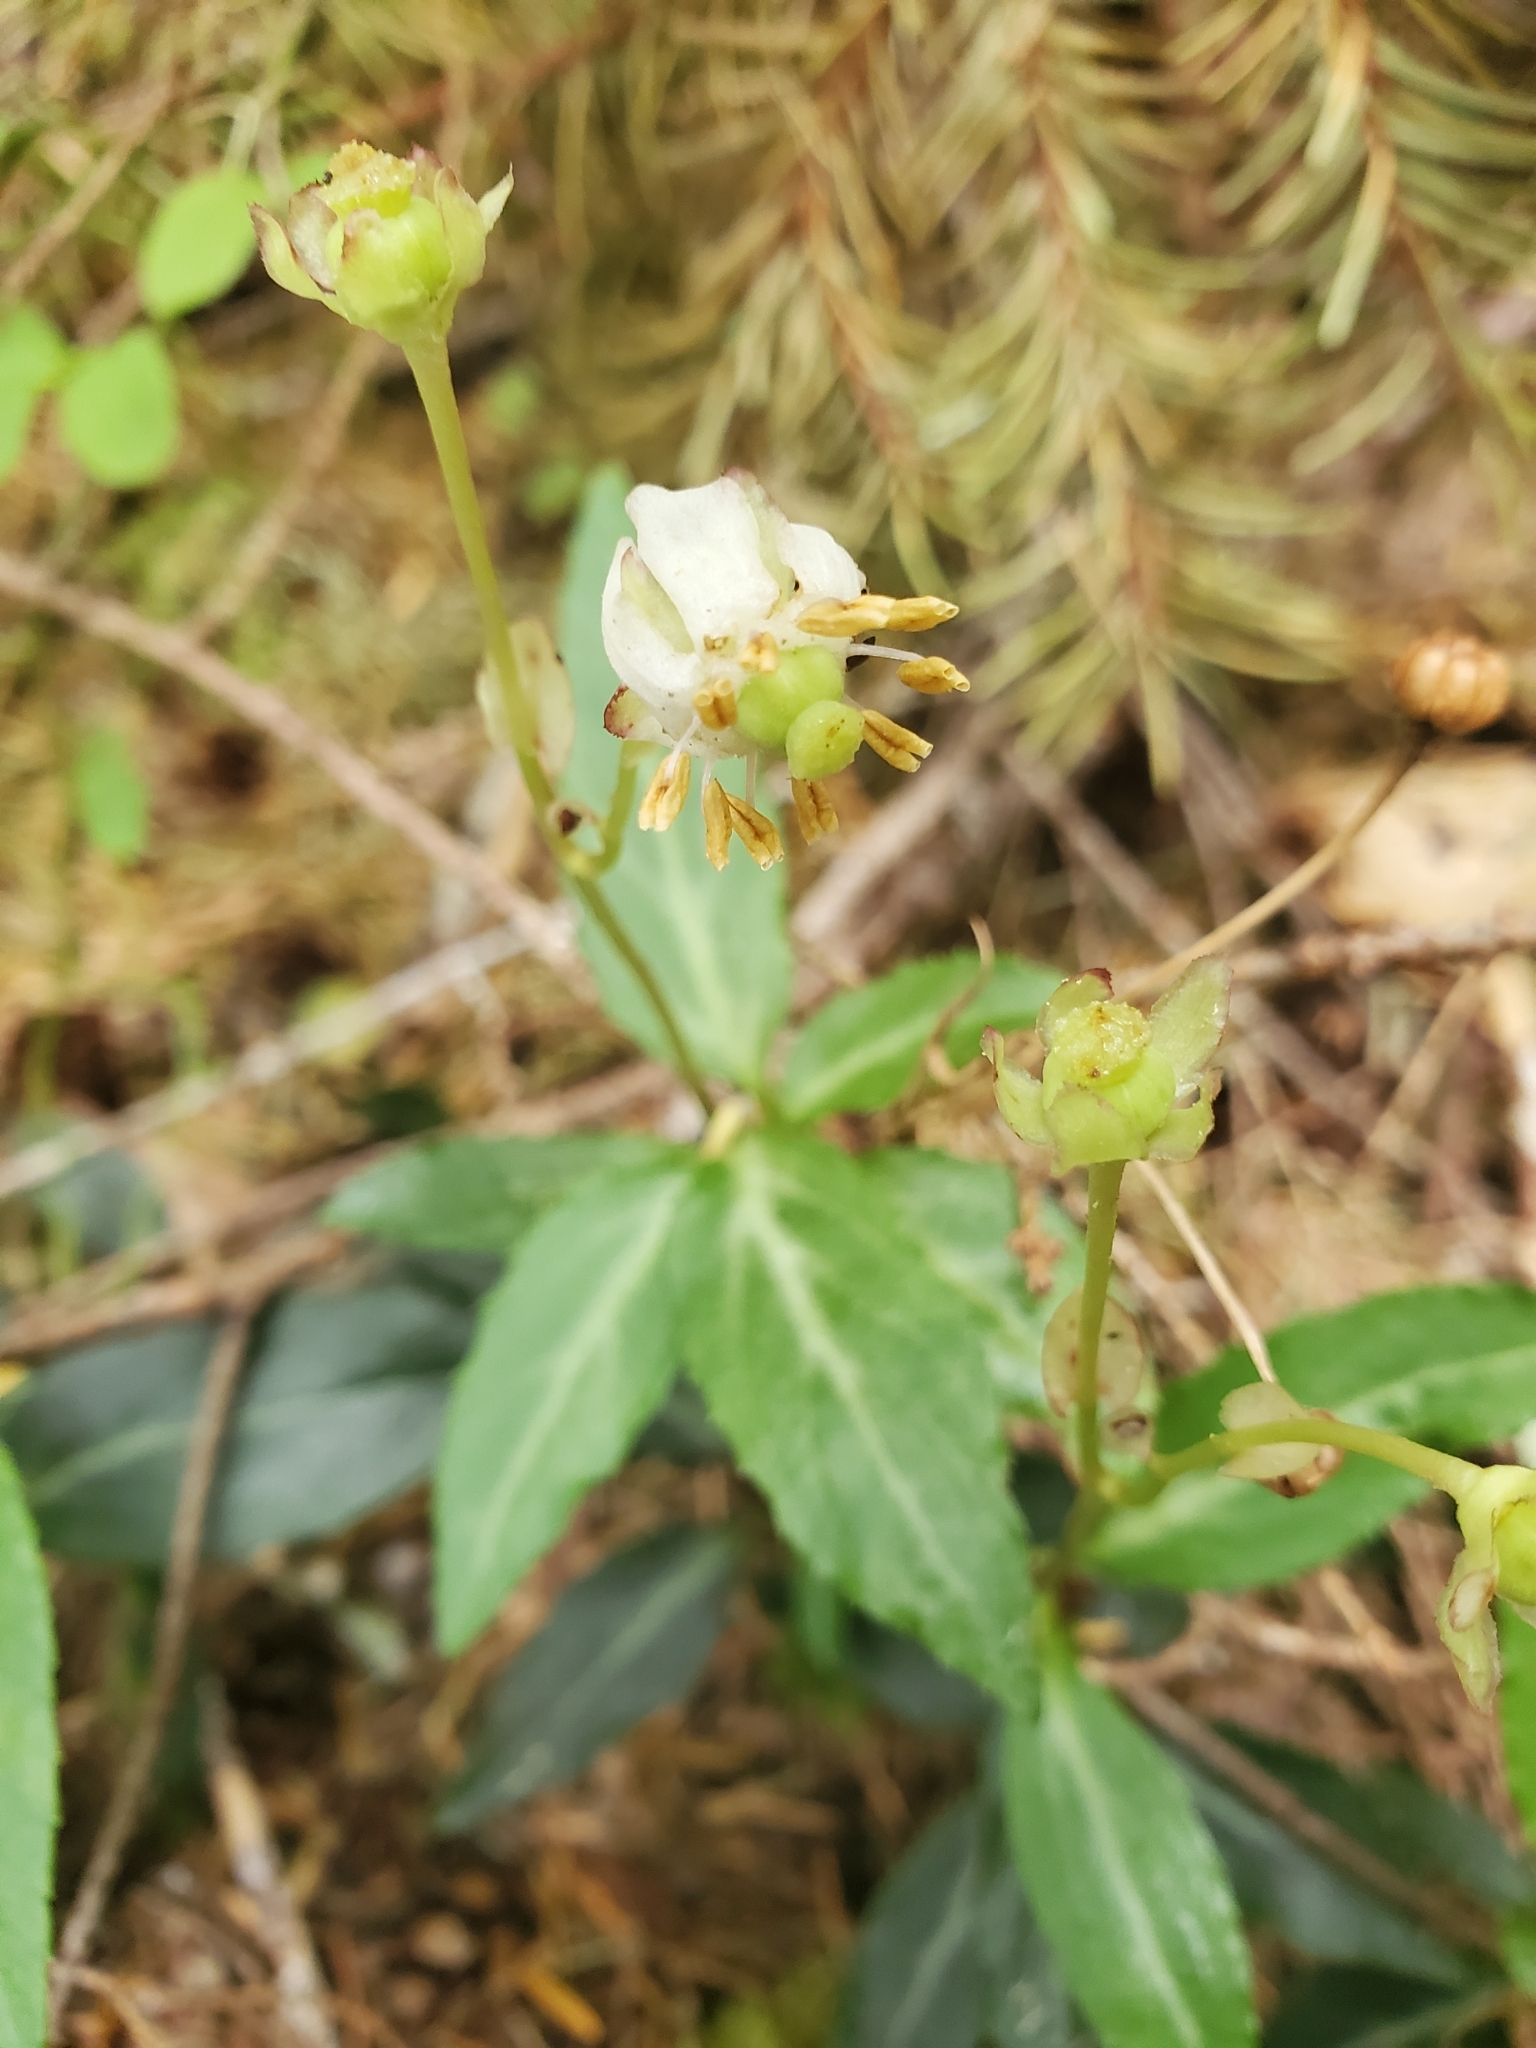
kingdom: Plantae
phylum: Tracheophyta
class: Magnoliopsida
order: Ericales
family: Ericaceae
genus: Chimaphila
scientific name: Chimaphila menziesii
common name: Menzies' pipsissewa
